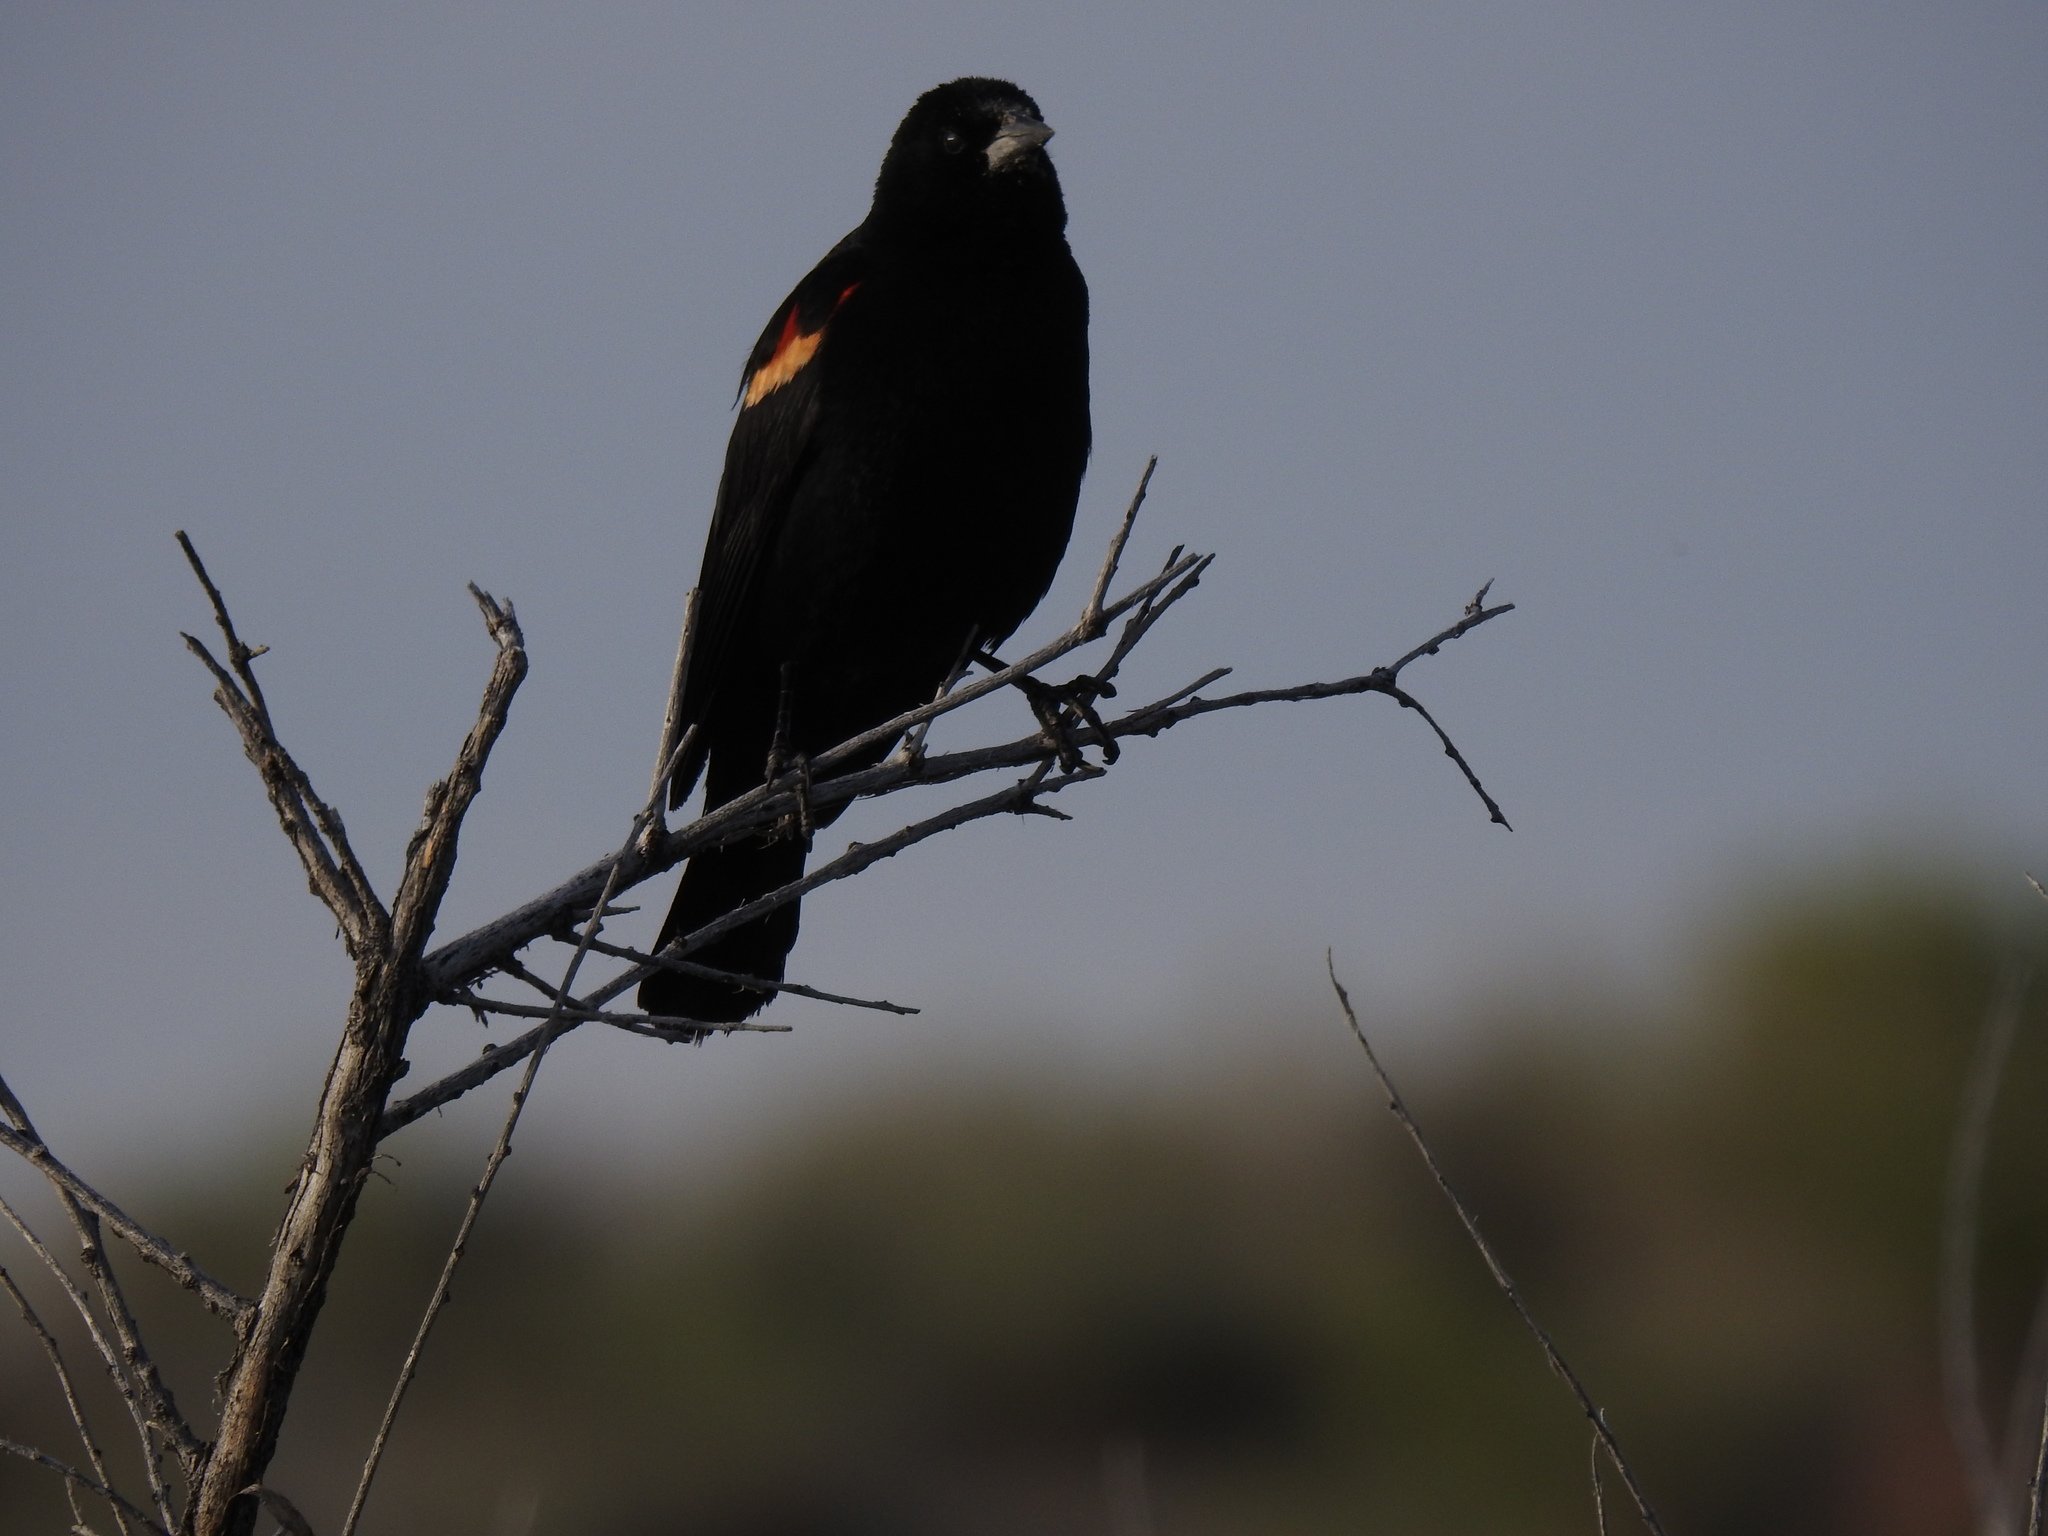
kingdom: Animalia
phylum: Chordata
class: Aves
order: Passeriformes
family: Icteridae
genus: Agelaius
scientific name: Agelaius phoeniceus
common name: Red-winged blackbird
